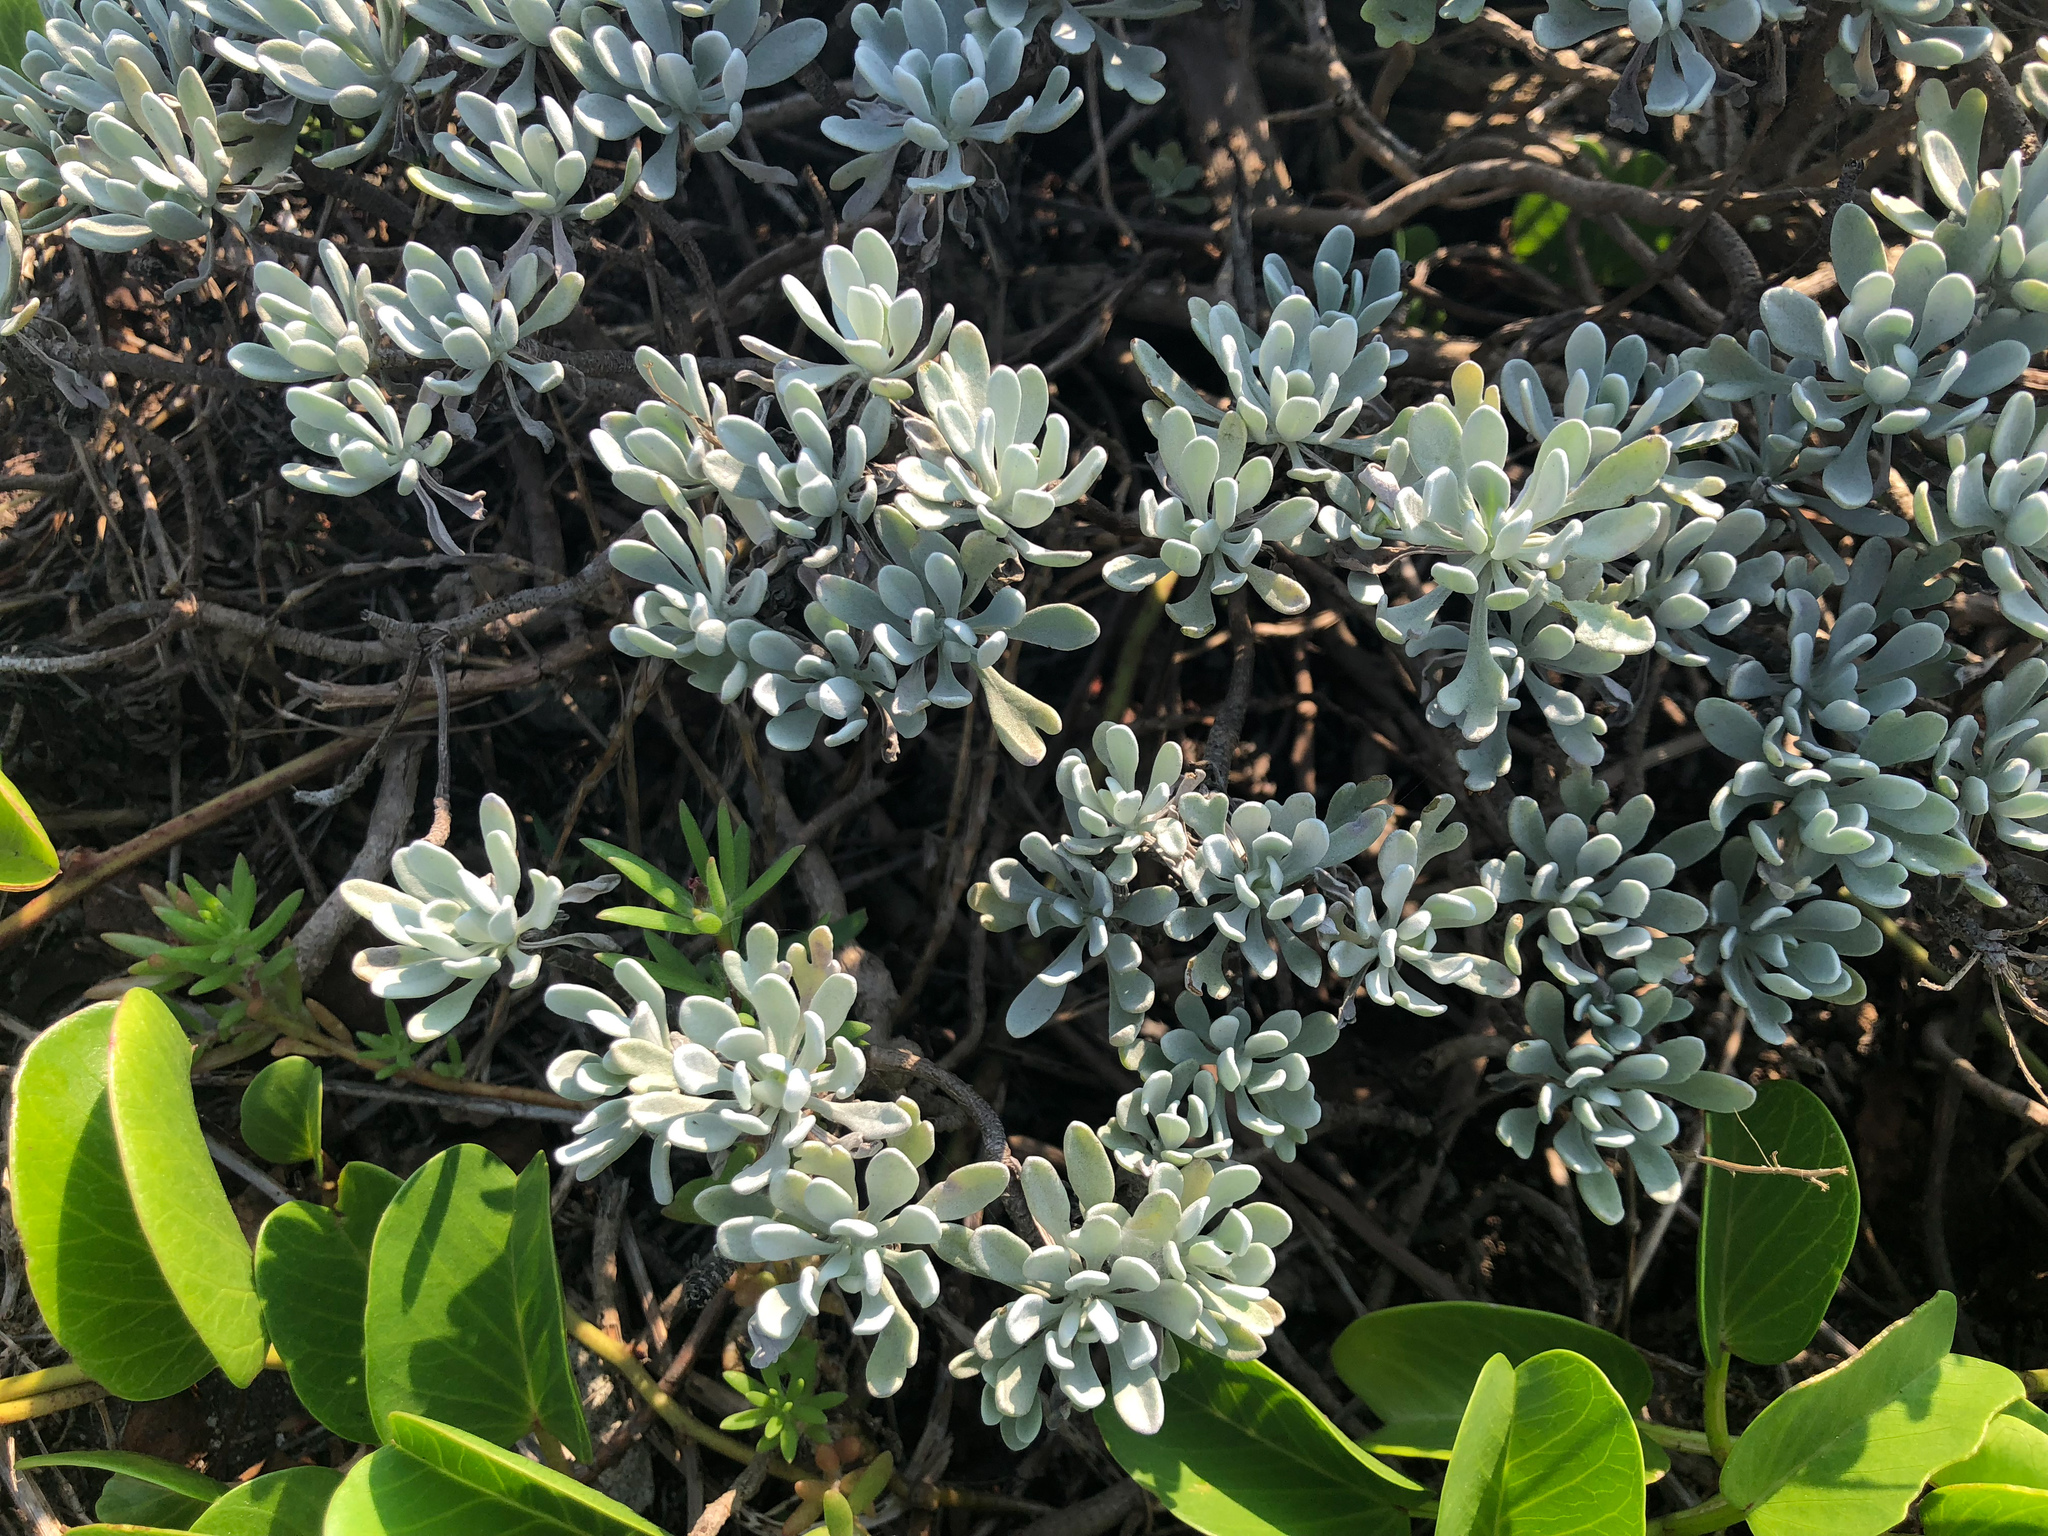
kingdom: Plantae
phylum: Tracheophyta
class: Magnoliopsida
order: Asterales
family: Asteraceae
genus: Crossostephium
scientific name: Crossostephium chinense
